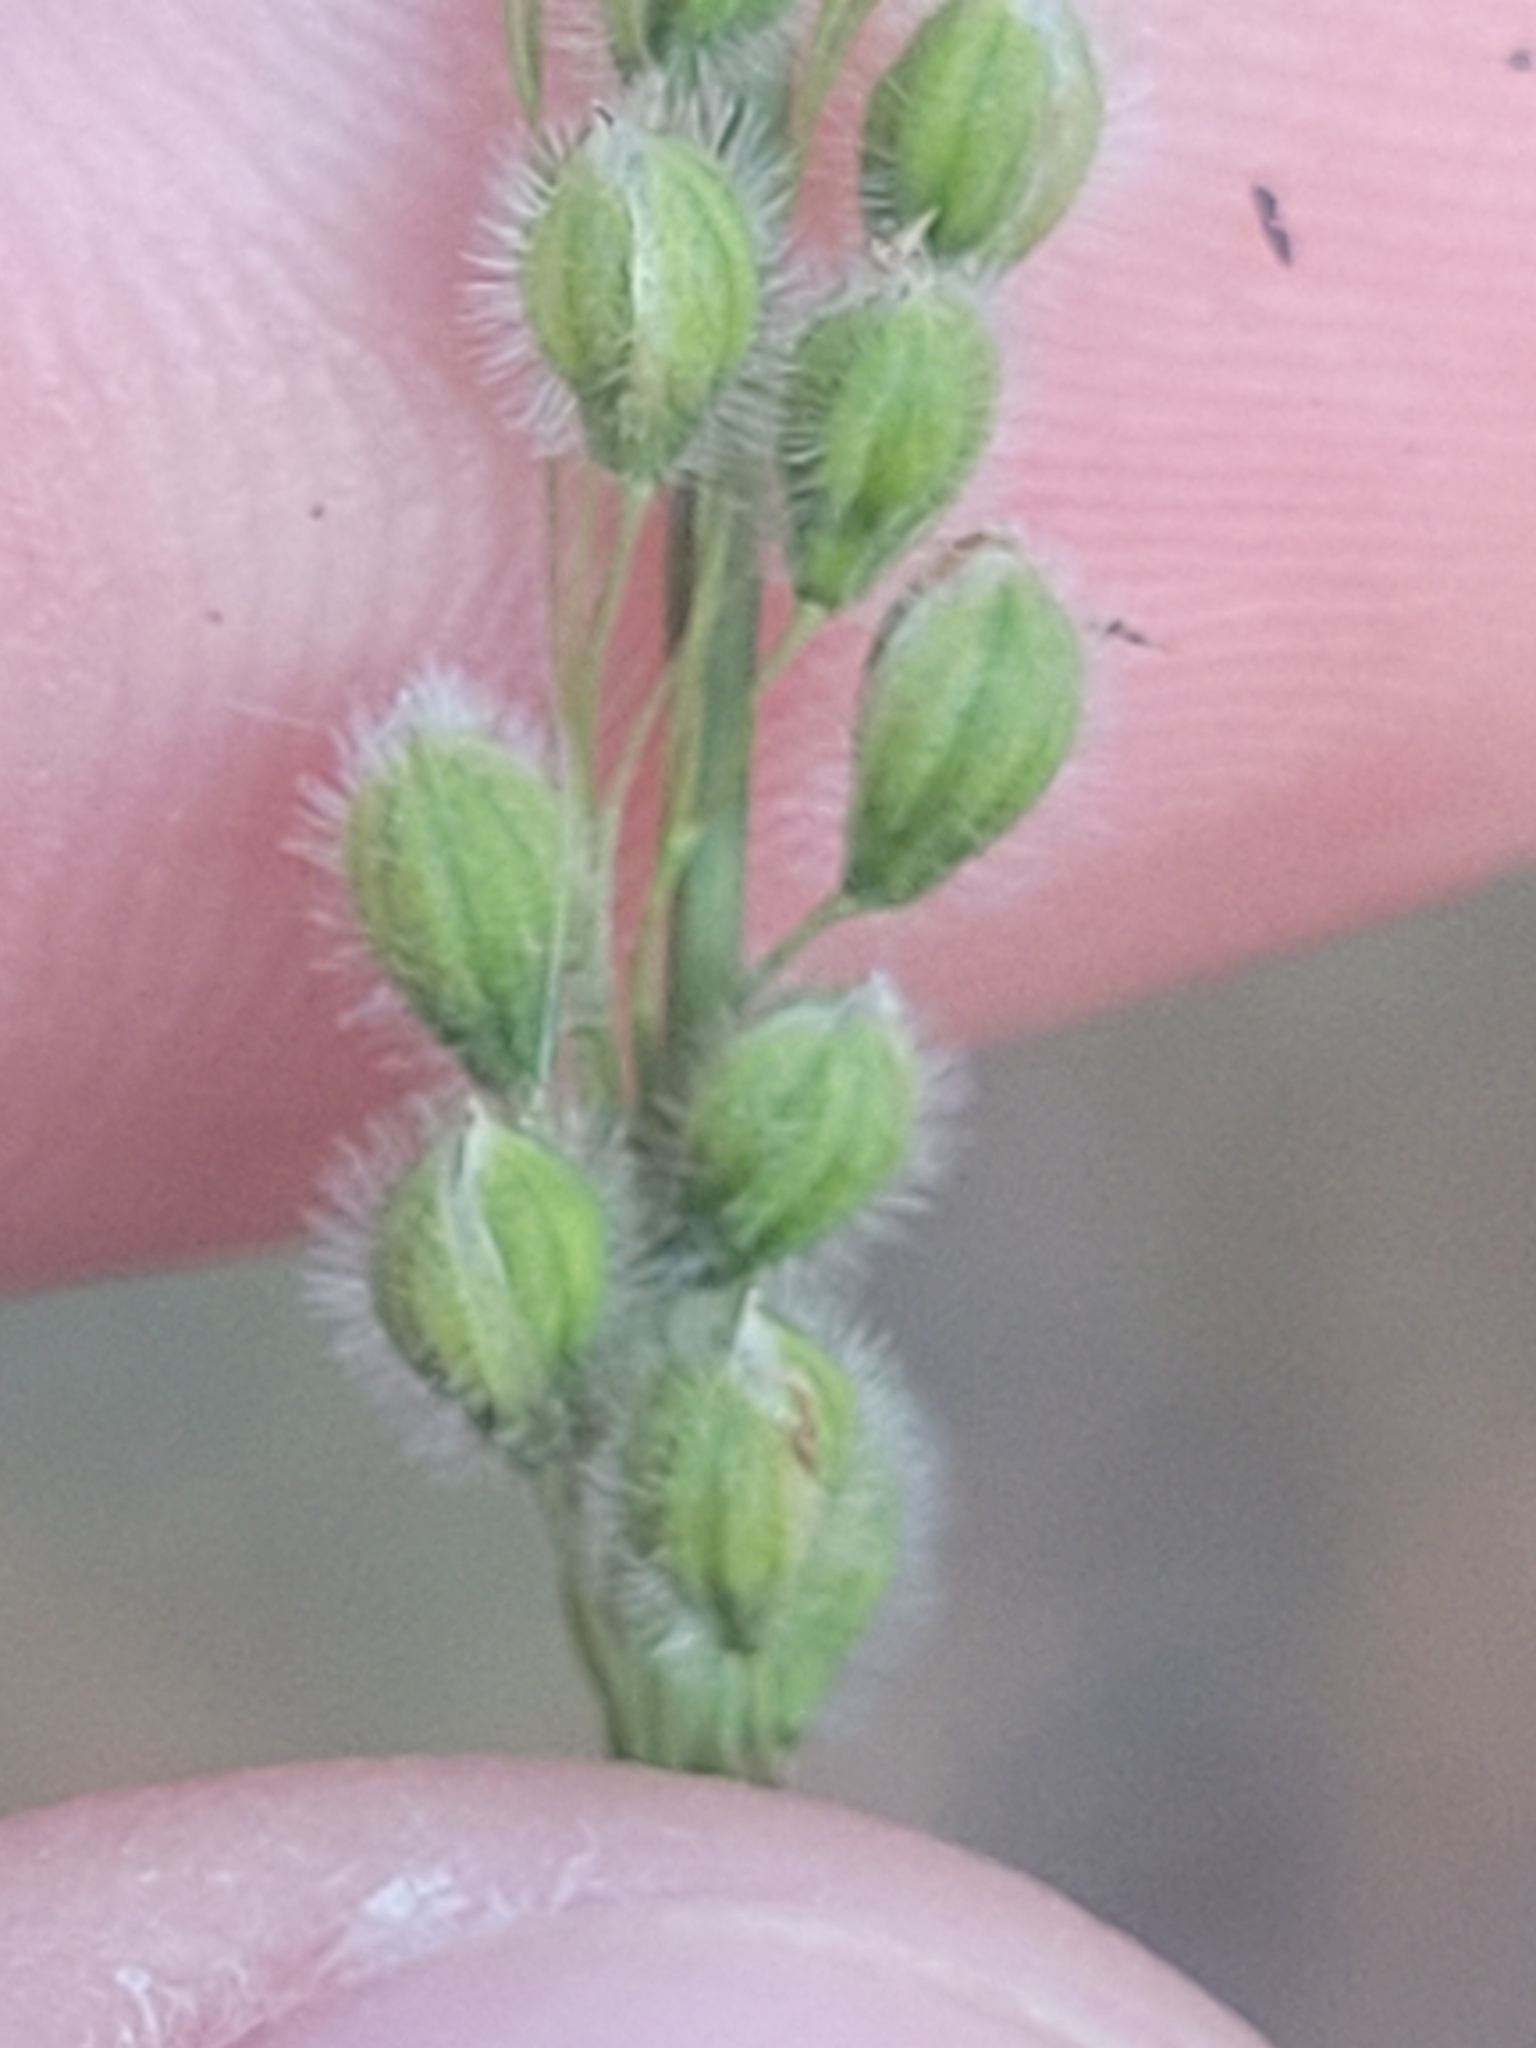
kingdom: Plantae
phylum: Tracheophyta
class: Liliopsida
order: Poales
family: Poaceae
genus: Anthenantia
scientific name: Anthenantia villosa
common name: Green silkyscale
